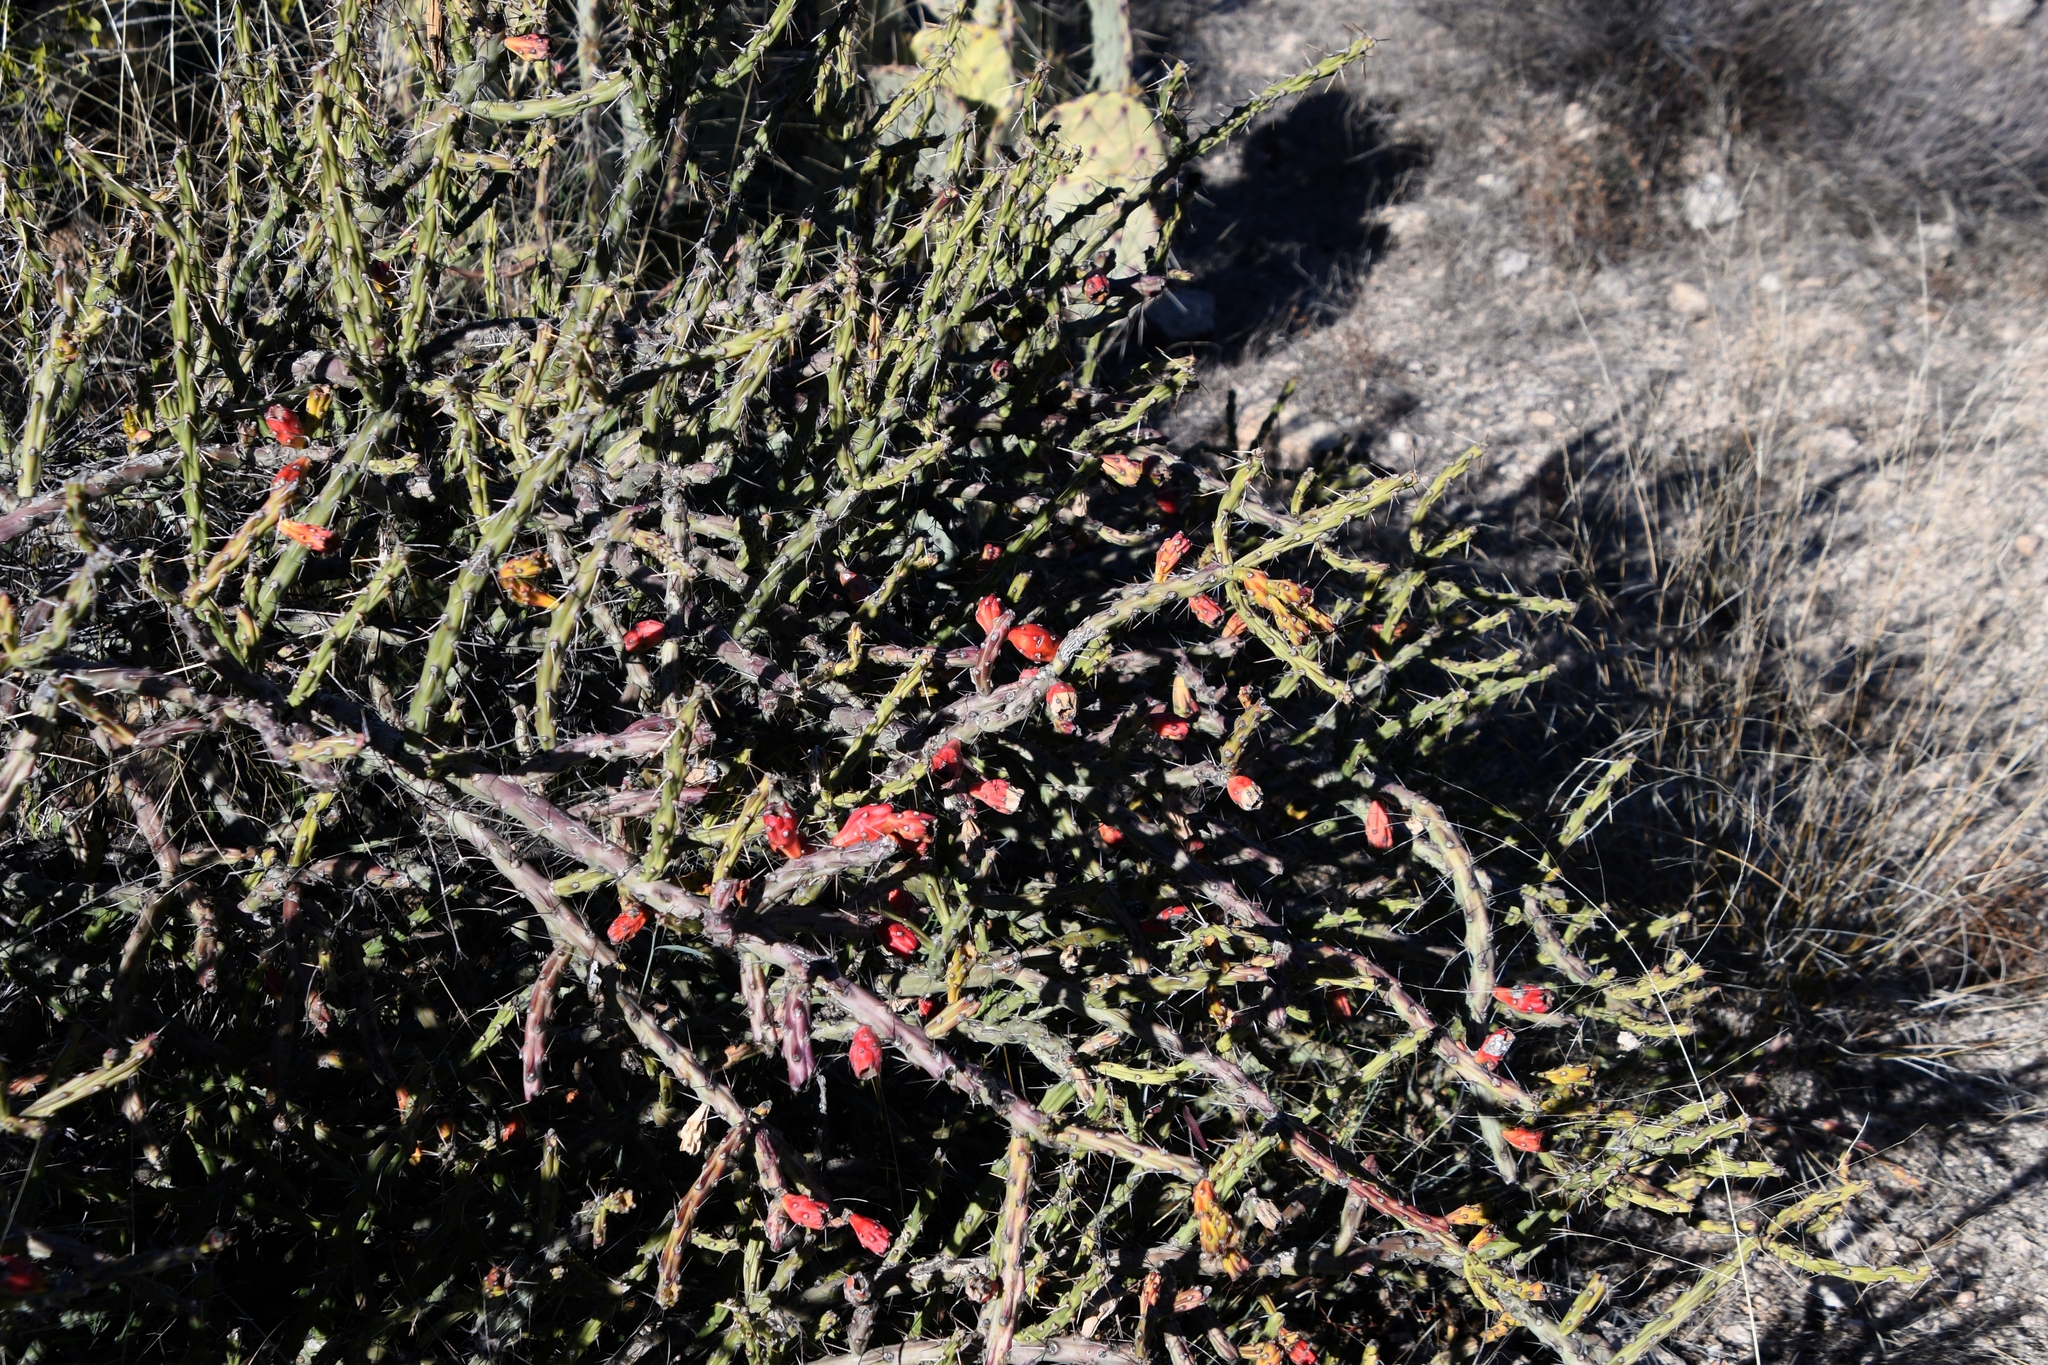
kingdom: Plantae
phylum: Tracheophyta
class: Magnoliopsida
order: Caryophyllales
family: Cactaceae
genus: Cylindropuntia
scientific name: Cylindropuntia leptocaulis
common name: Christmas cactus
